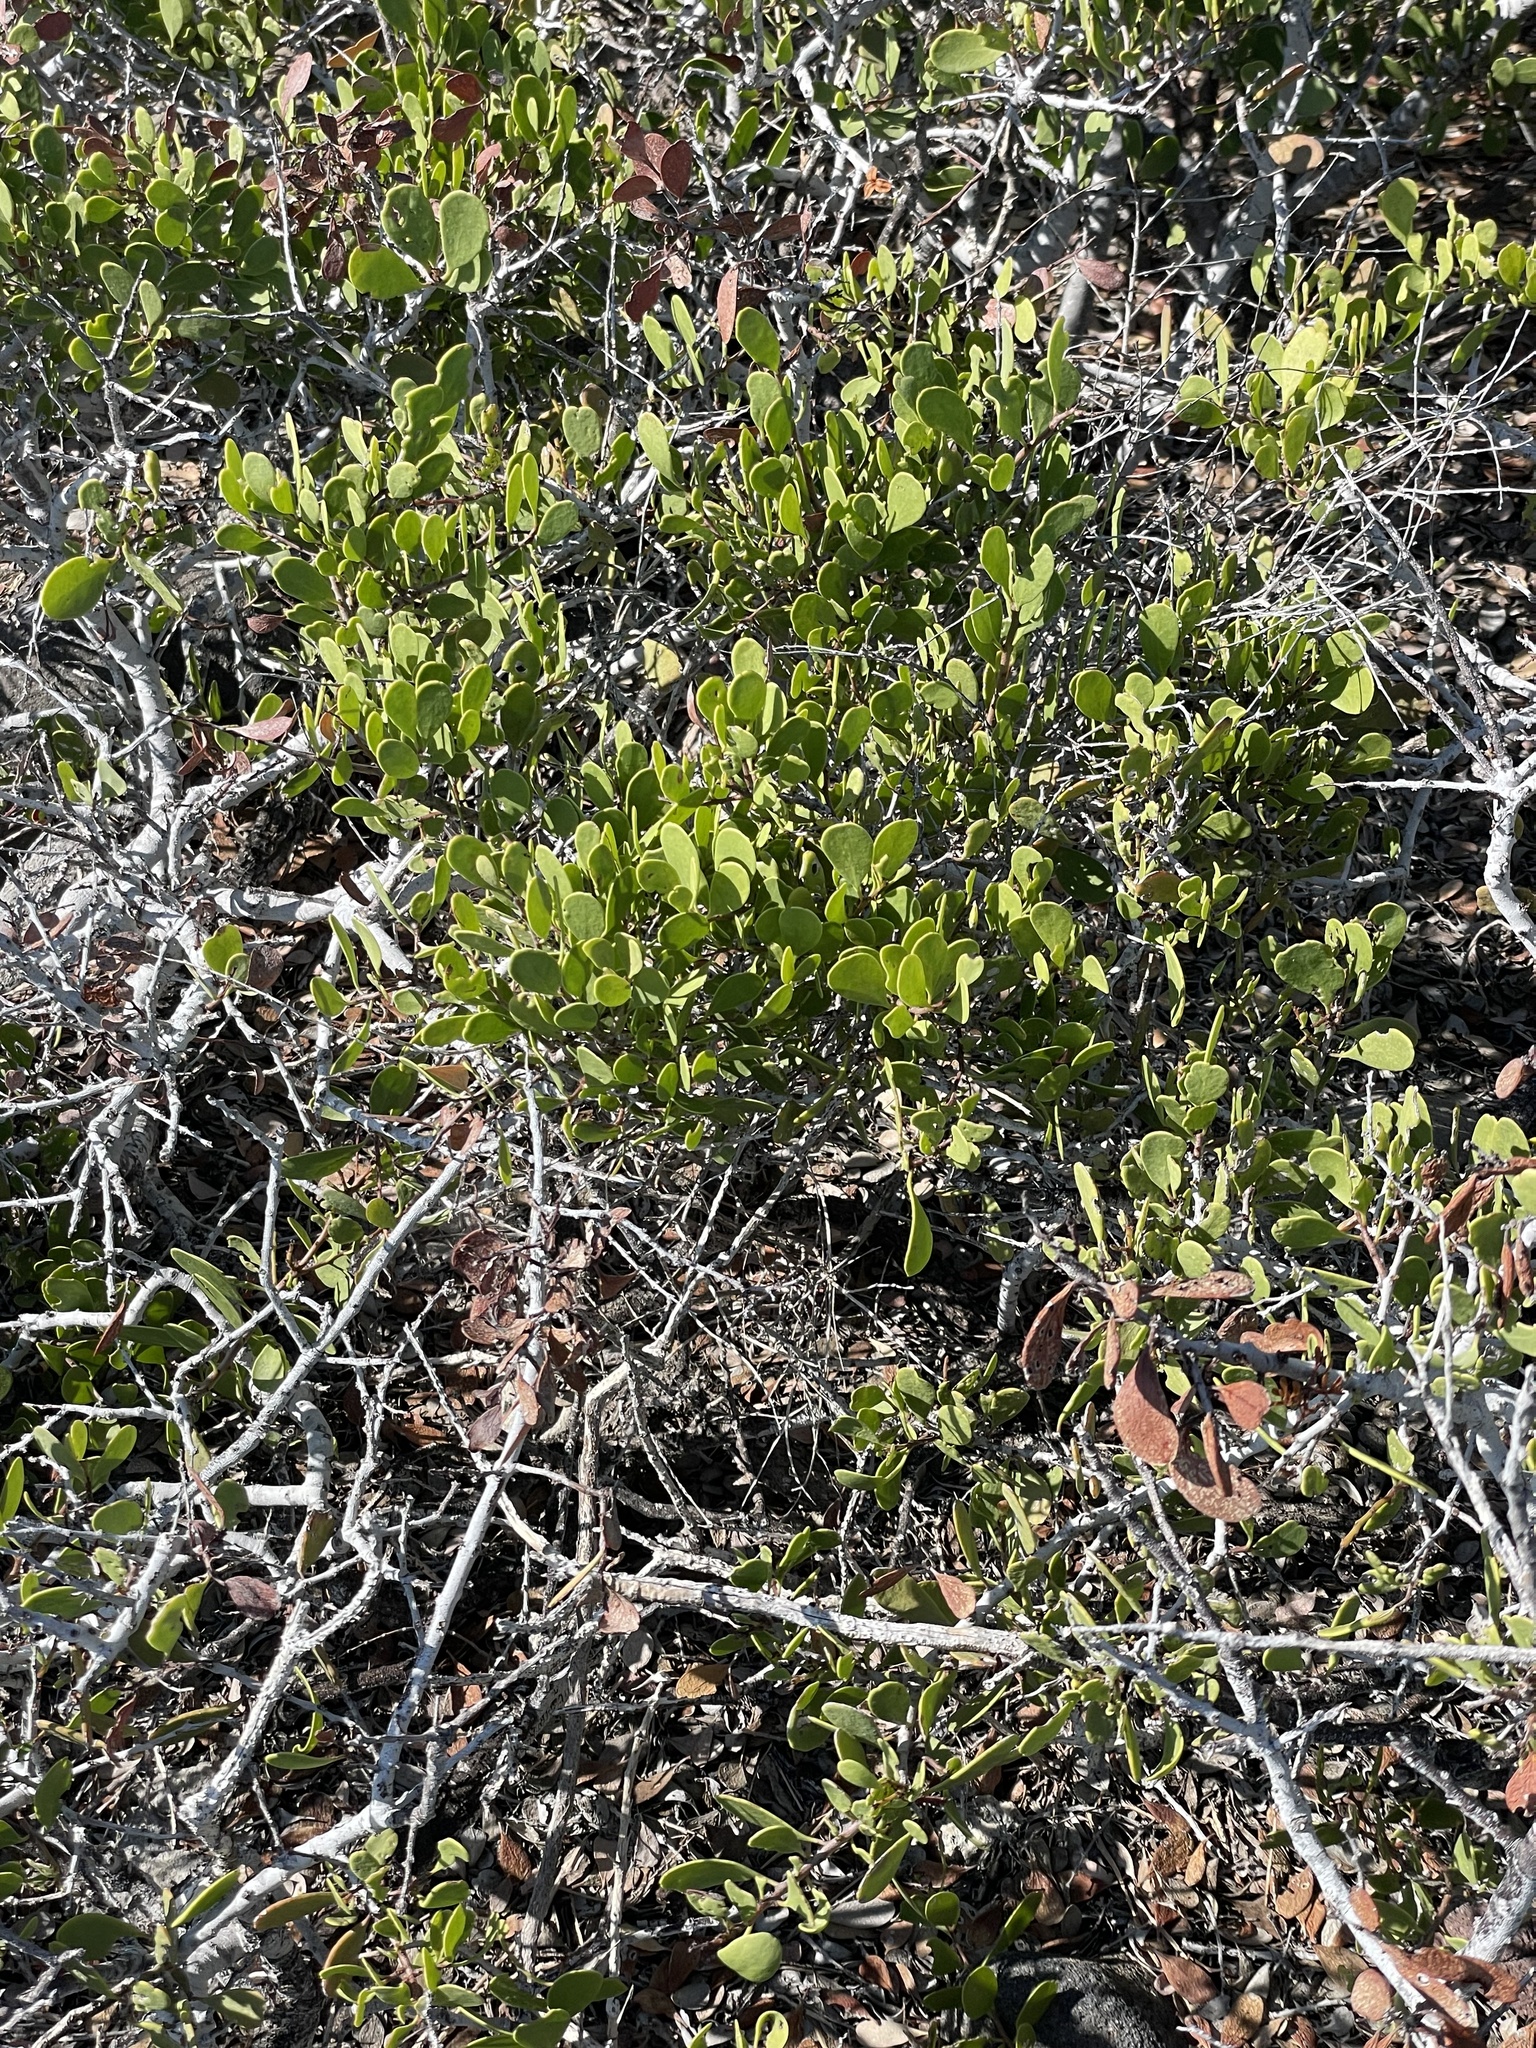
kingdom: Plantae
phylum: Tracheophyta
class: Magnoliopsida
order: Celastrales
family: Celastraceae
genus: Tricerma
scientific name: Tricerma phyllanthoides
